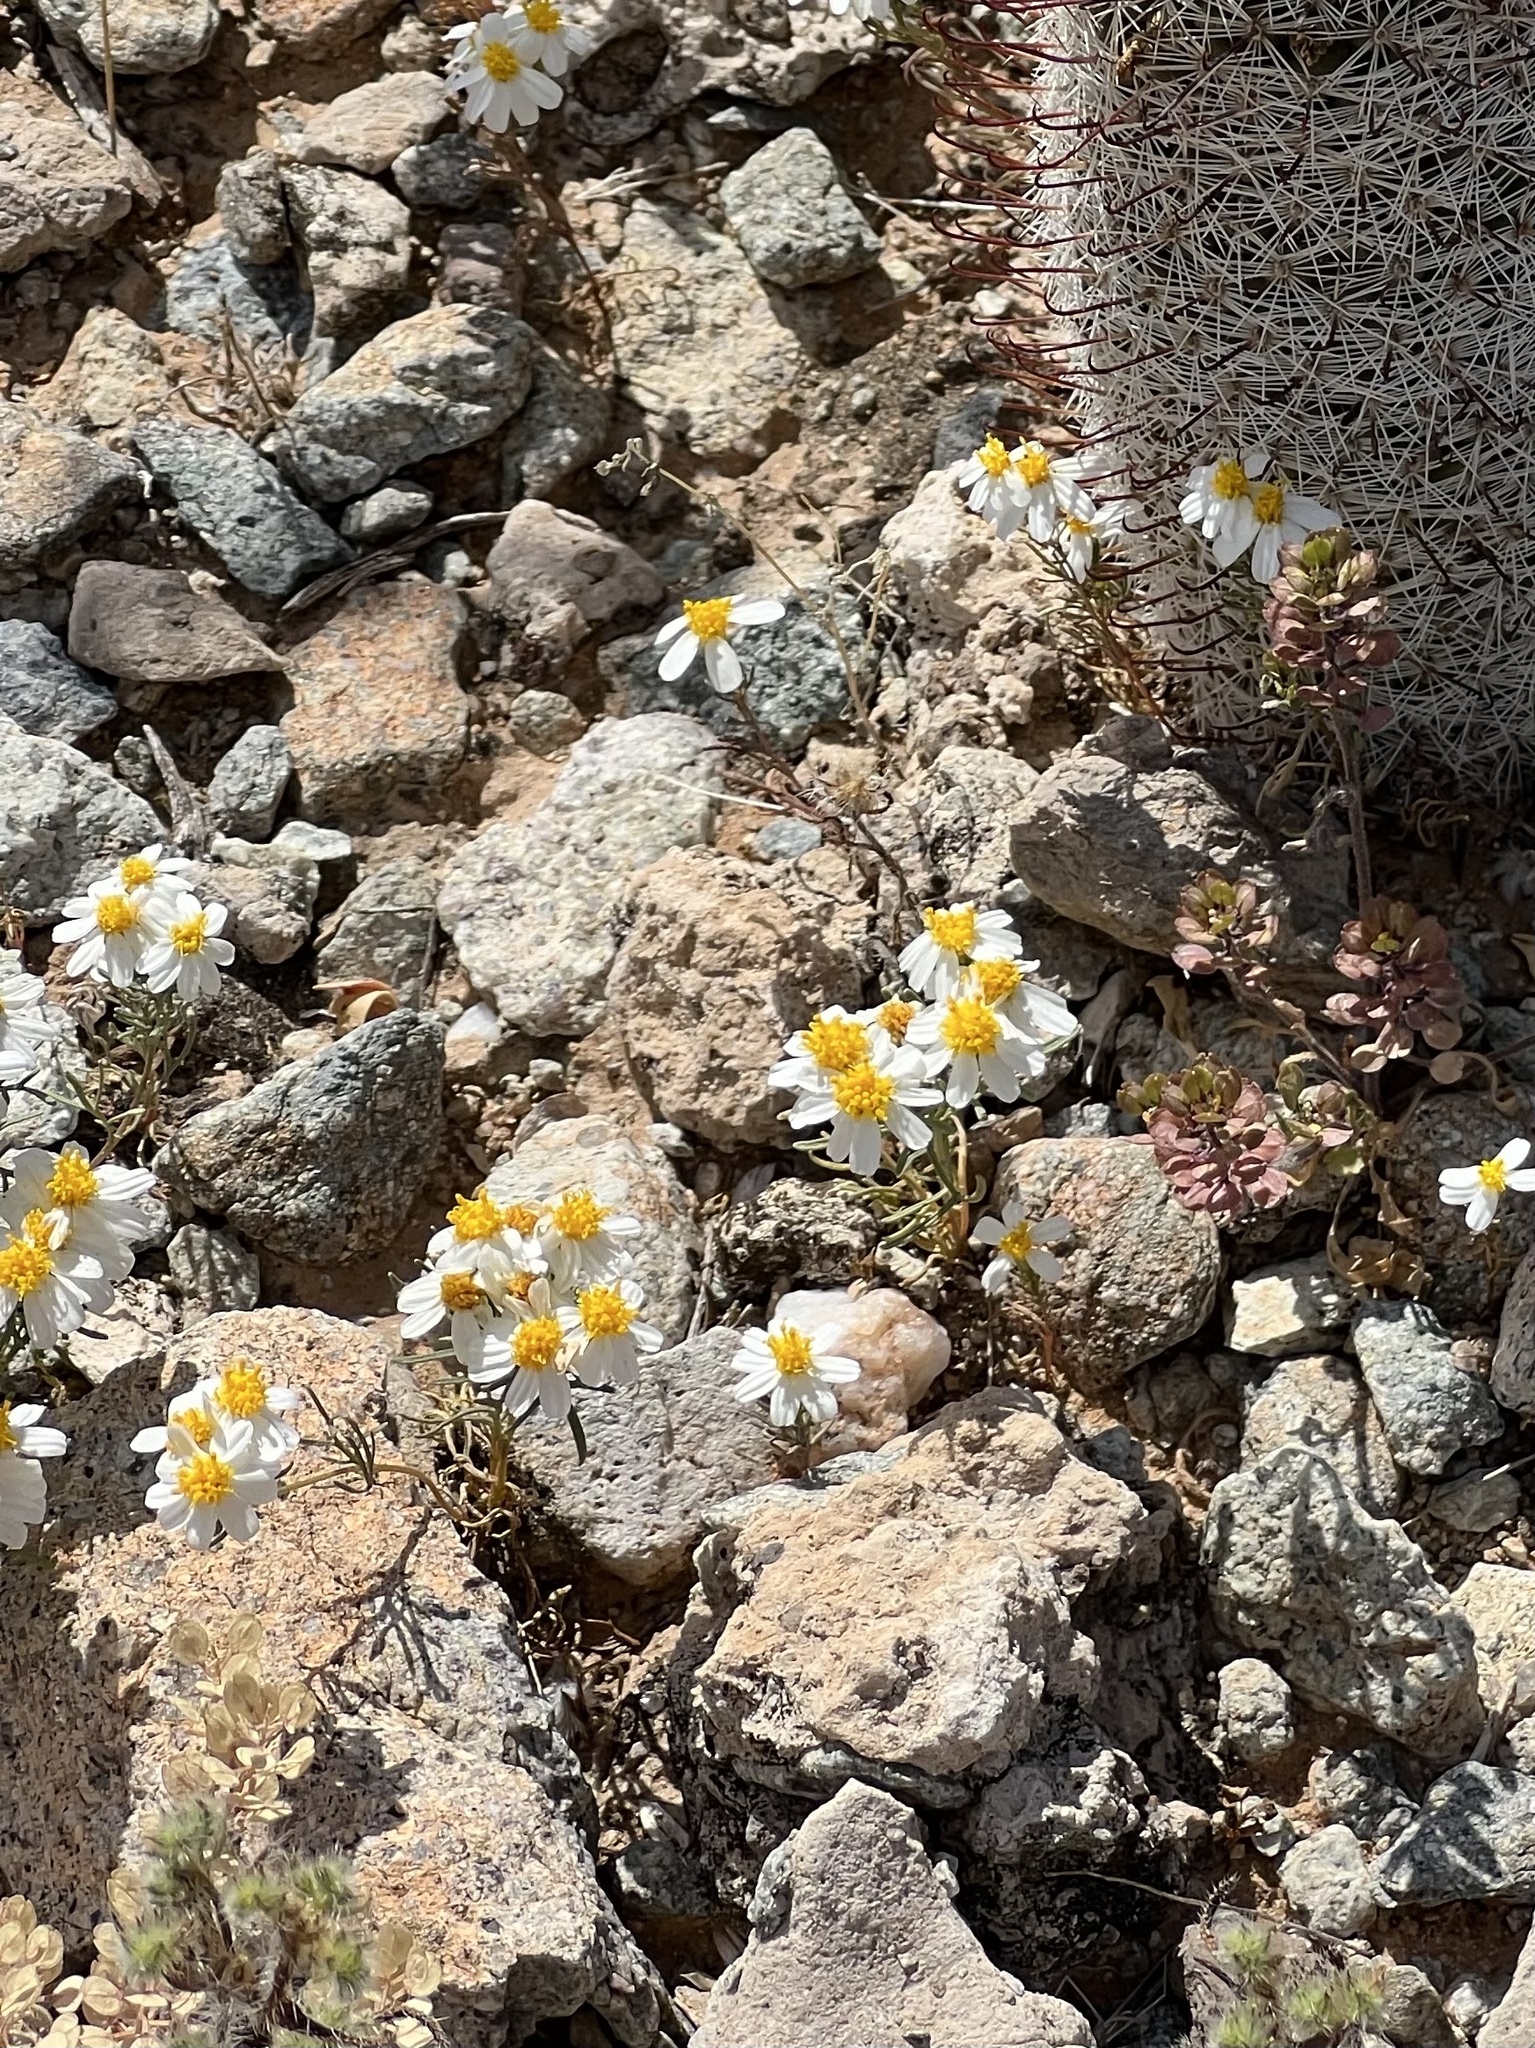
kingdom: Plantae
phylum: Tracheophyta
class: Magnoliopsida
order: Asterales
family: Asteraceae
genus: Thymophylla
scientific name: Thymophylla concinna
